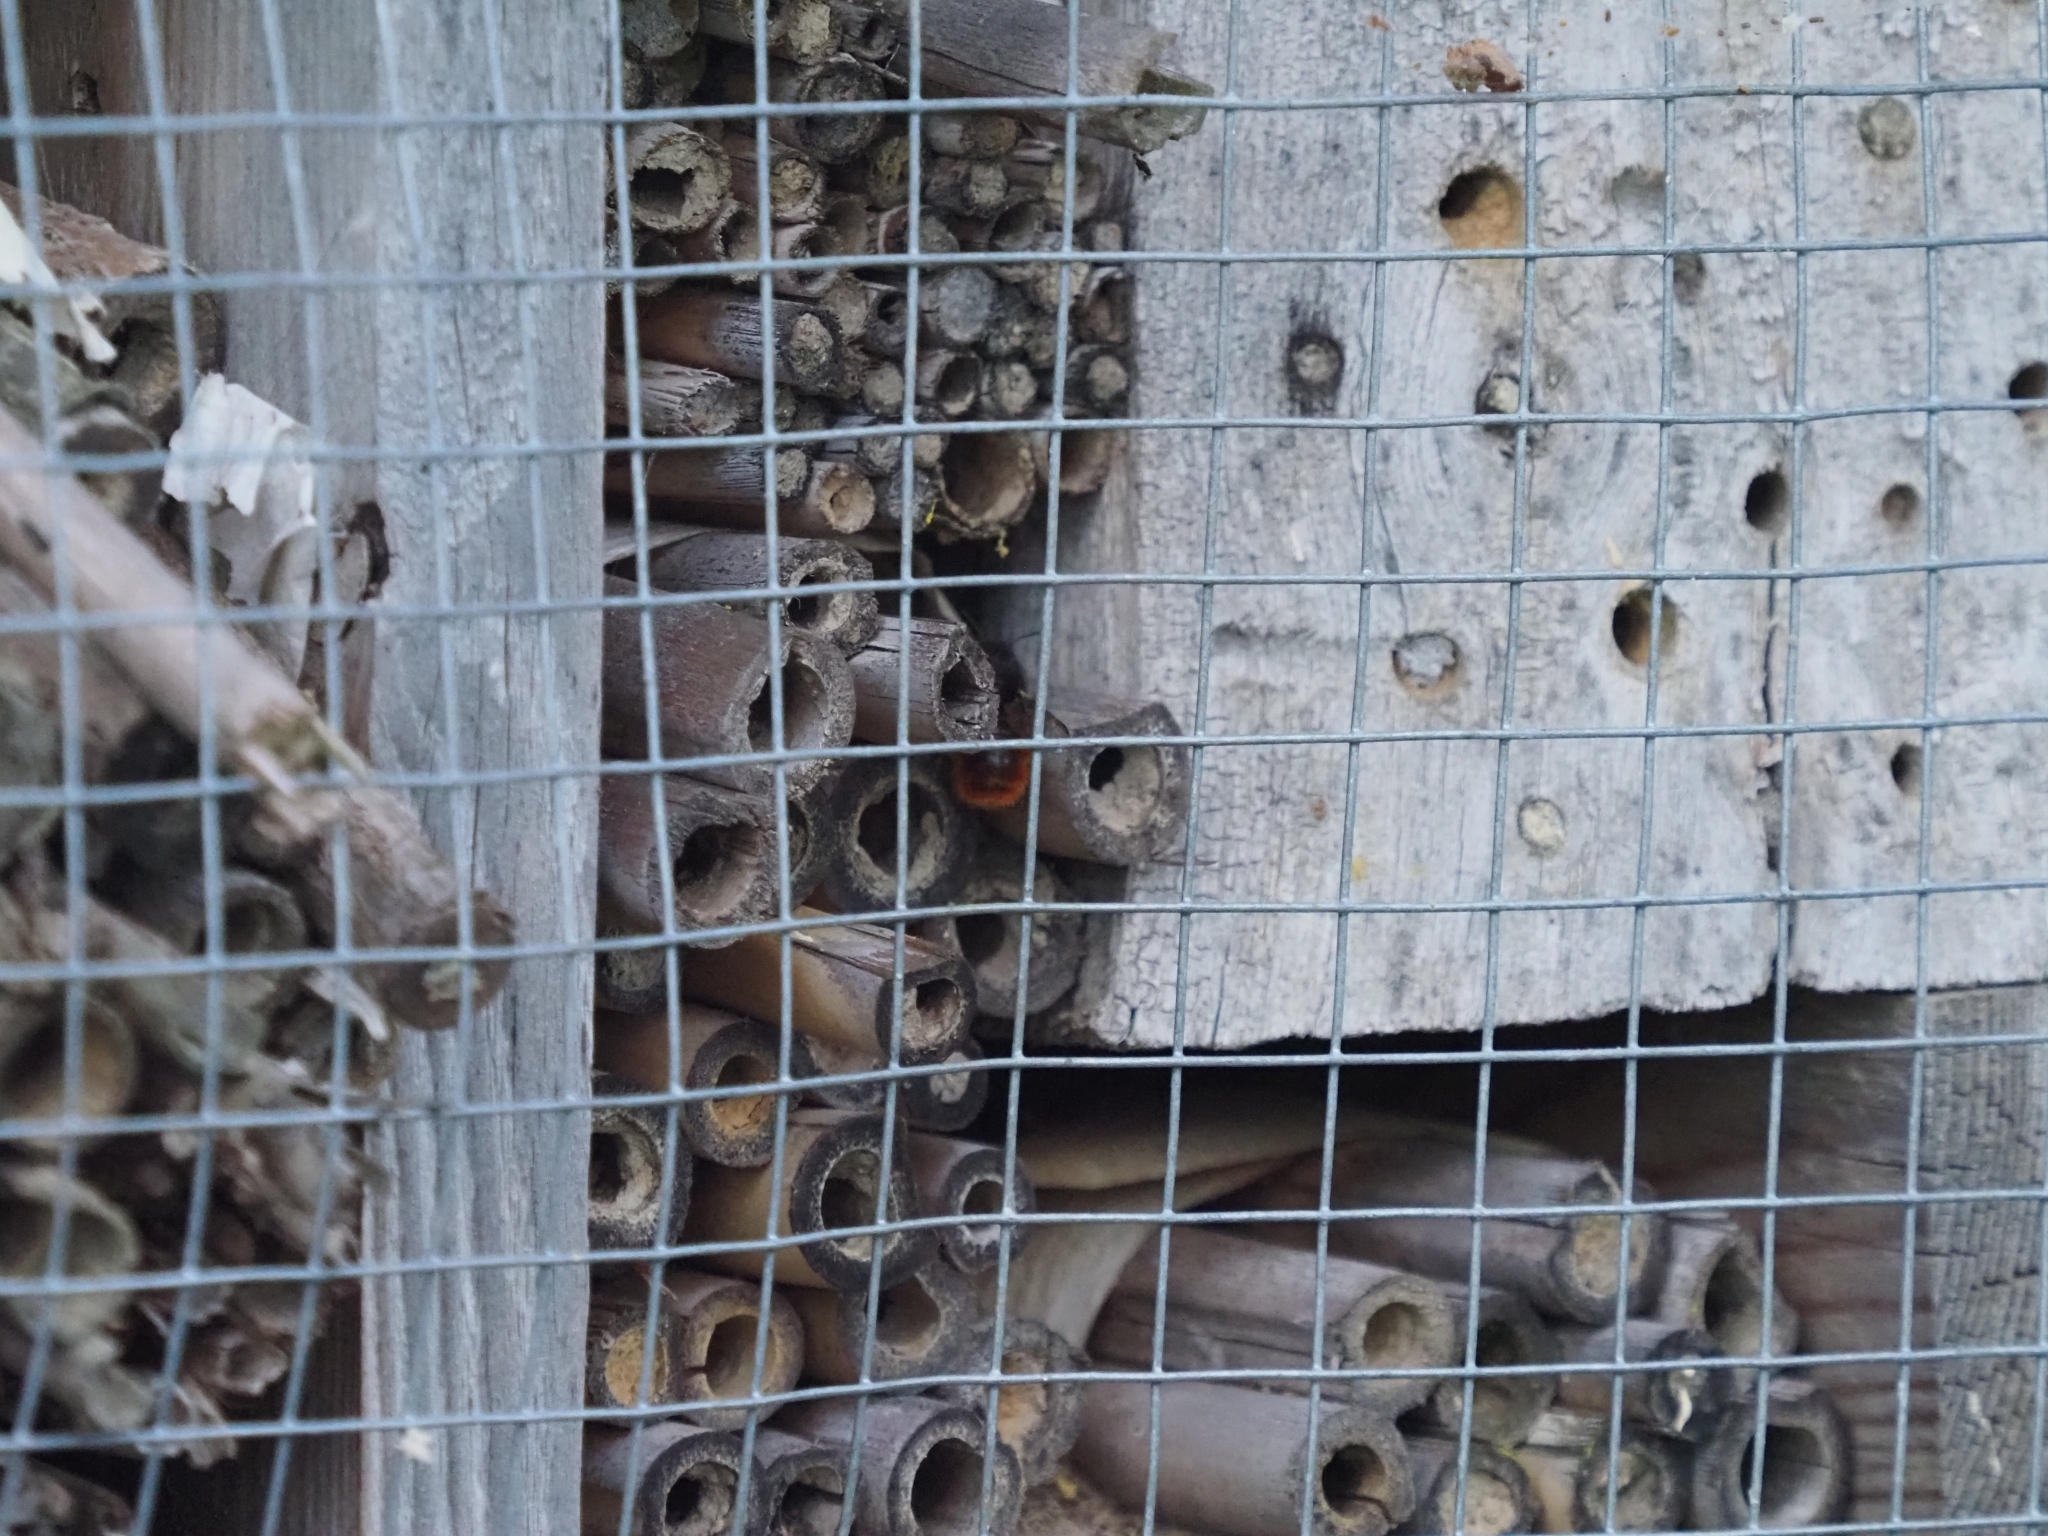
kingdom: Animalia
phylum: Arthropoda
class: Insecta
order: Hymenoptera
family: Megachilidae
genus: Osmia
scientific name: Osmia cornuta
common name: Mason bee
